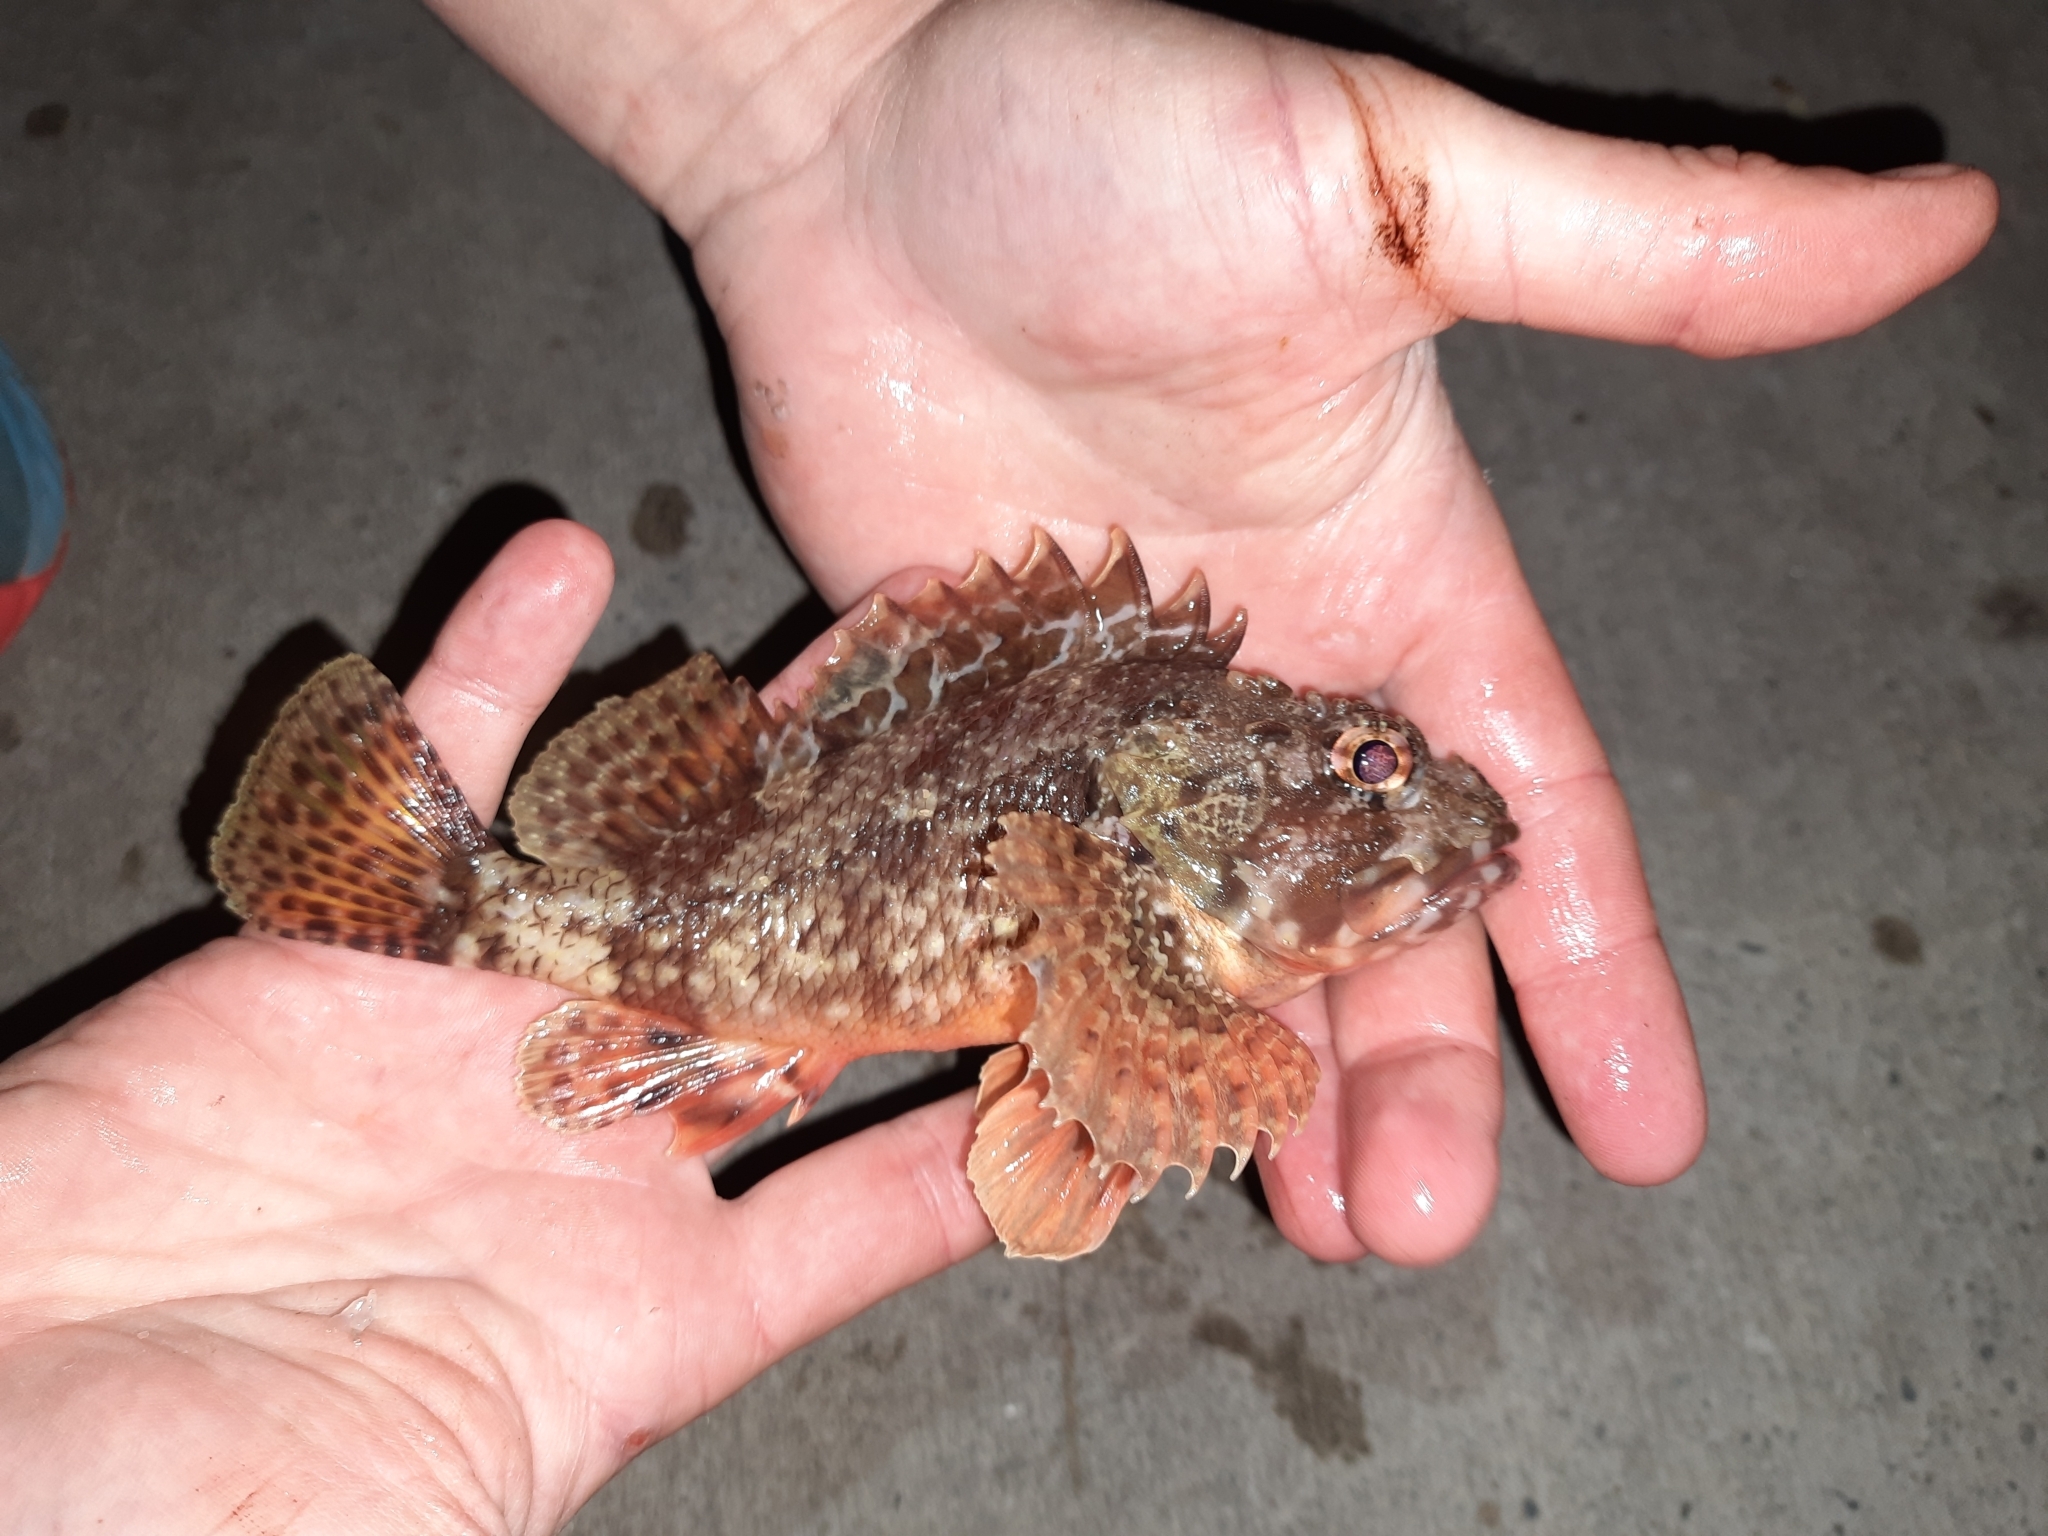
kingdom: Animalia
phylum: Chordata
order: Scorpaeniformes
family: Scorpaenidae
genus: Scorpaena
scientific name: Scorpaena papillosa
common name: Chained scorpionfish
